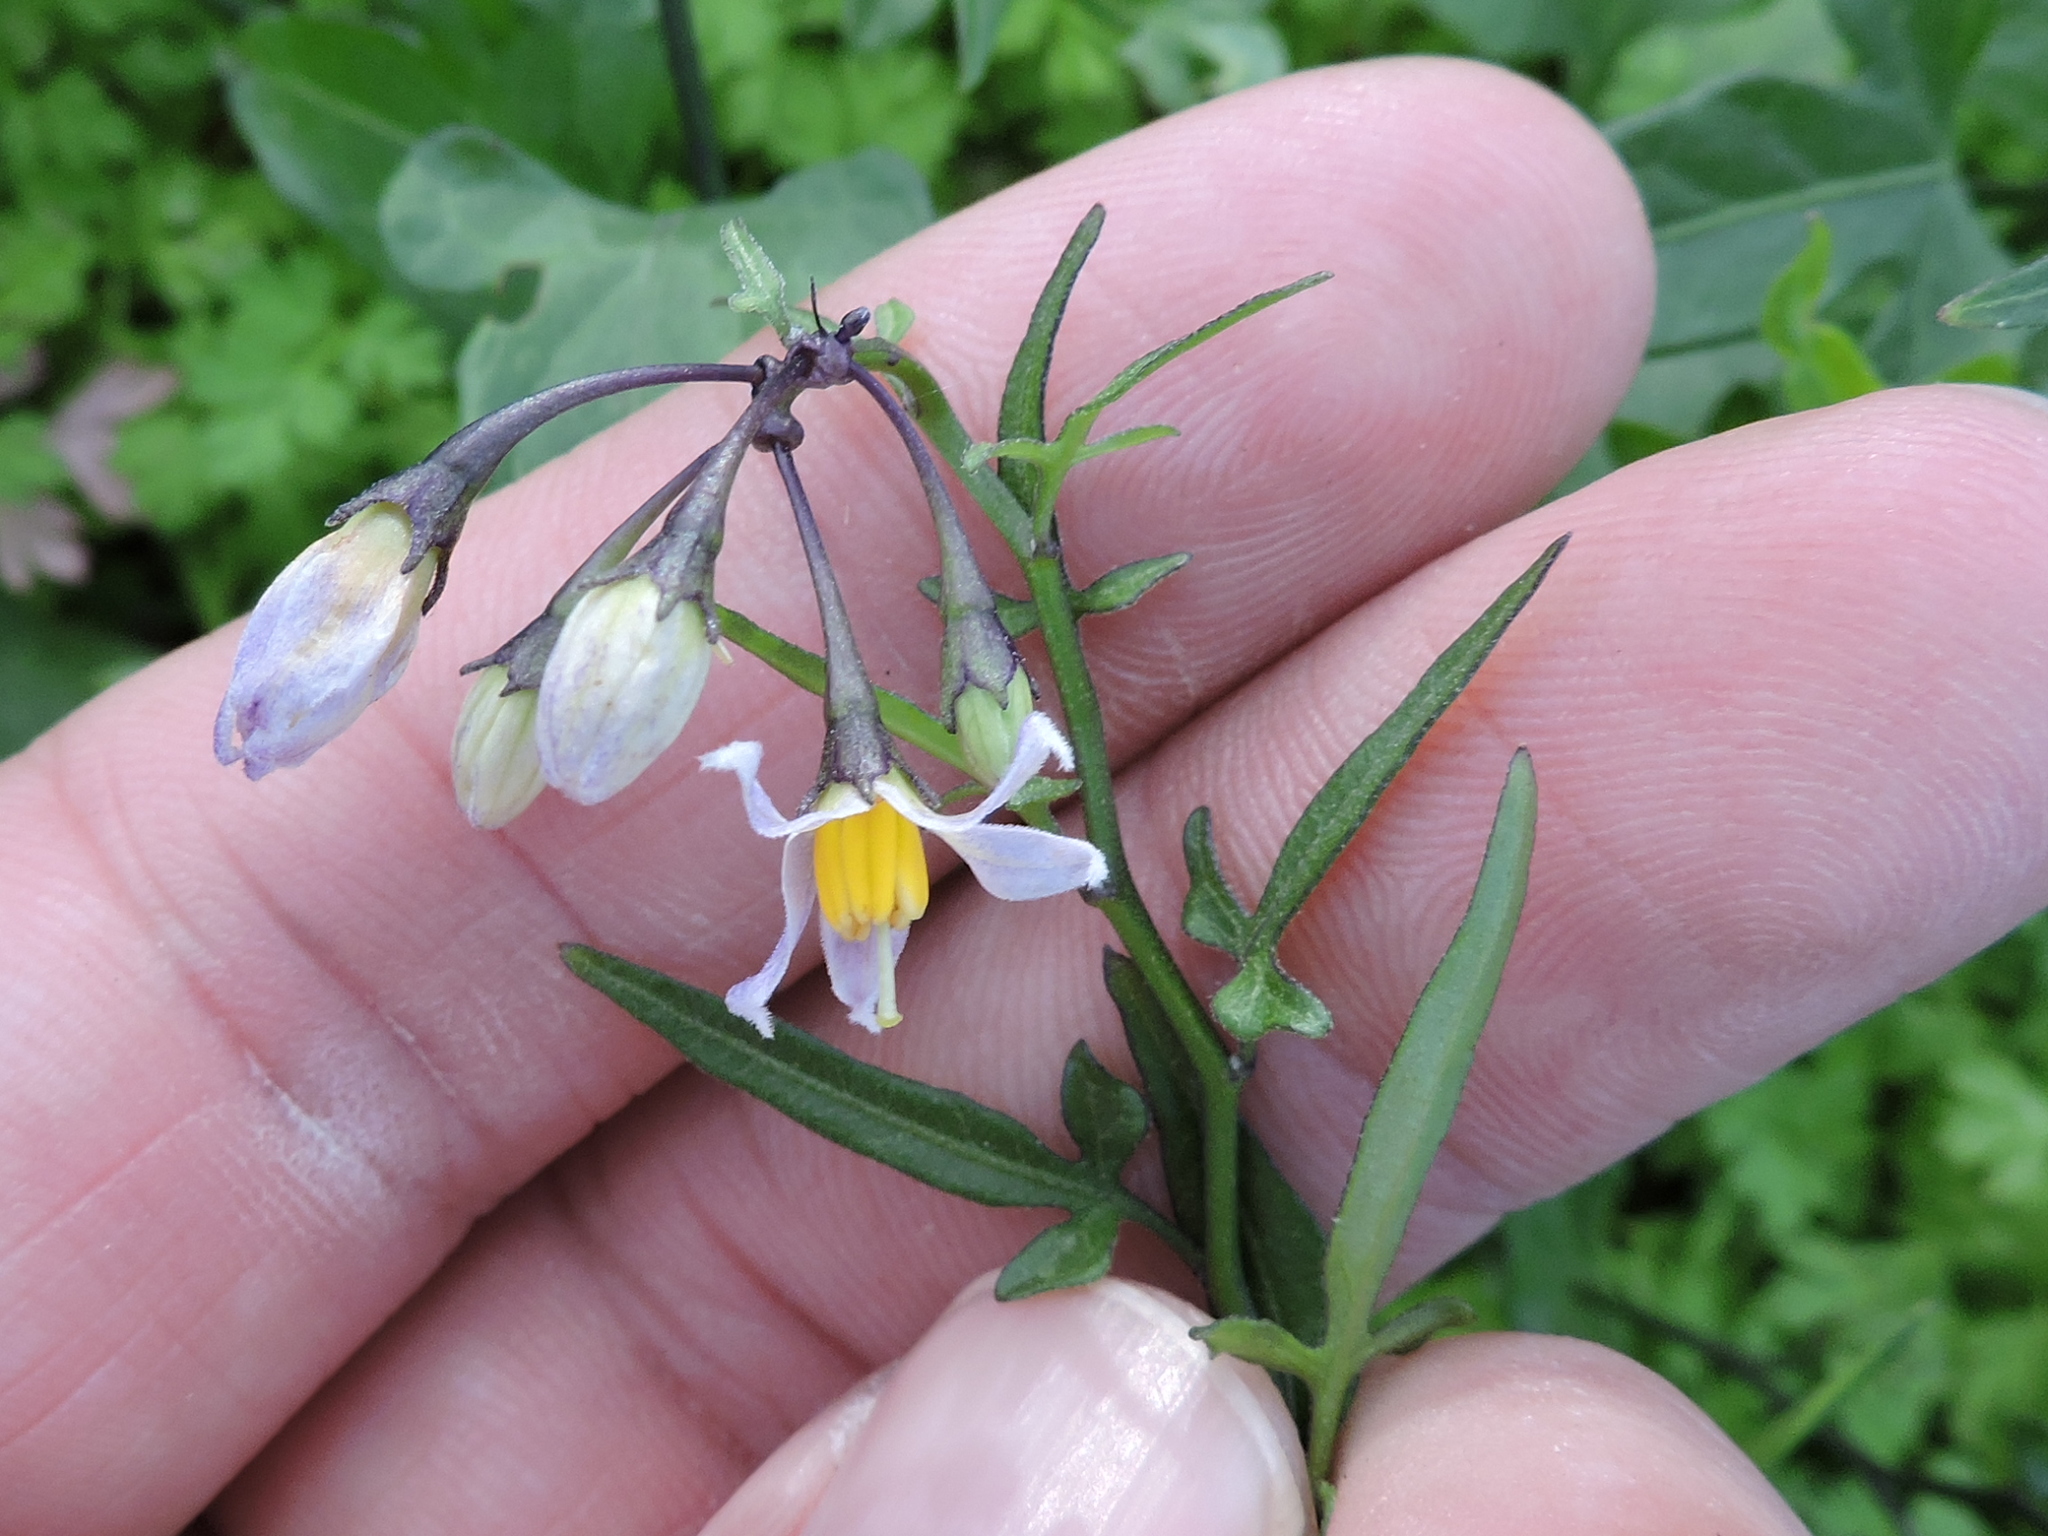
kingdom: Plantae
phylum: Tracheophyta
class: Magnoliopsida
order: Solanales
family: Solanaceae
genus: Solanum
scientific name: Solanum triquetrum
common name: Texas nightshade
